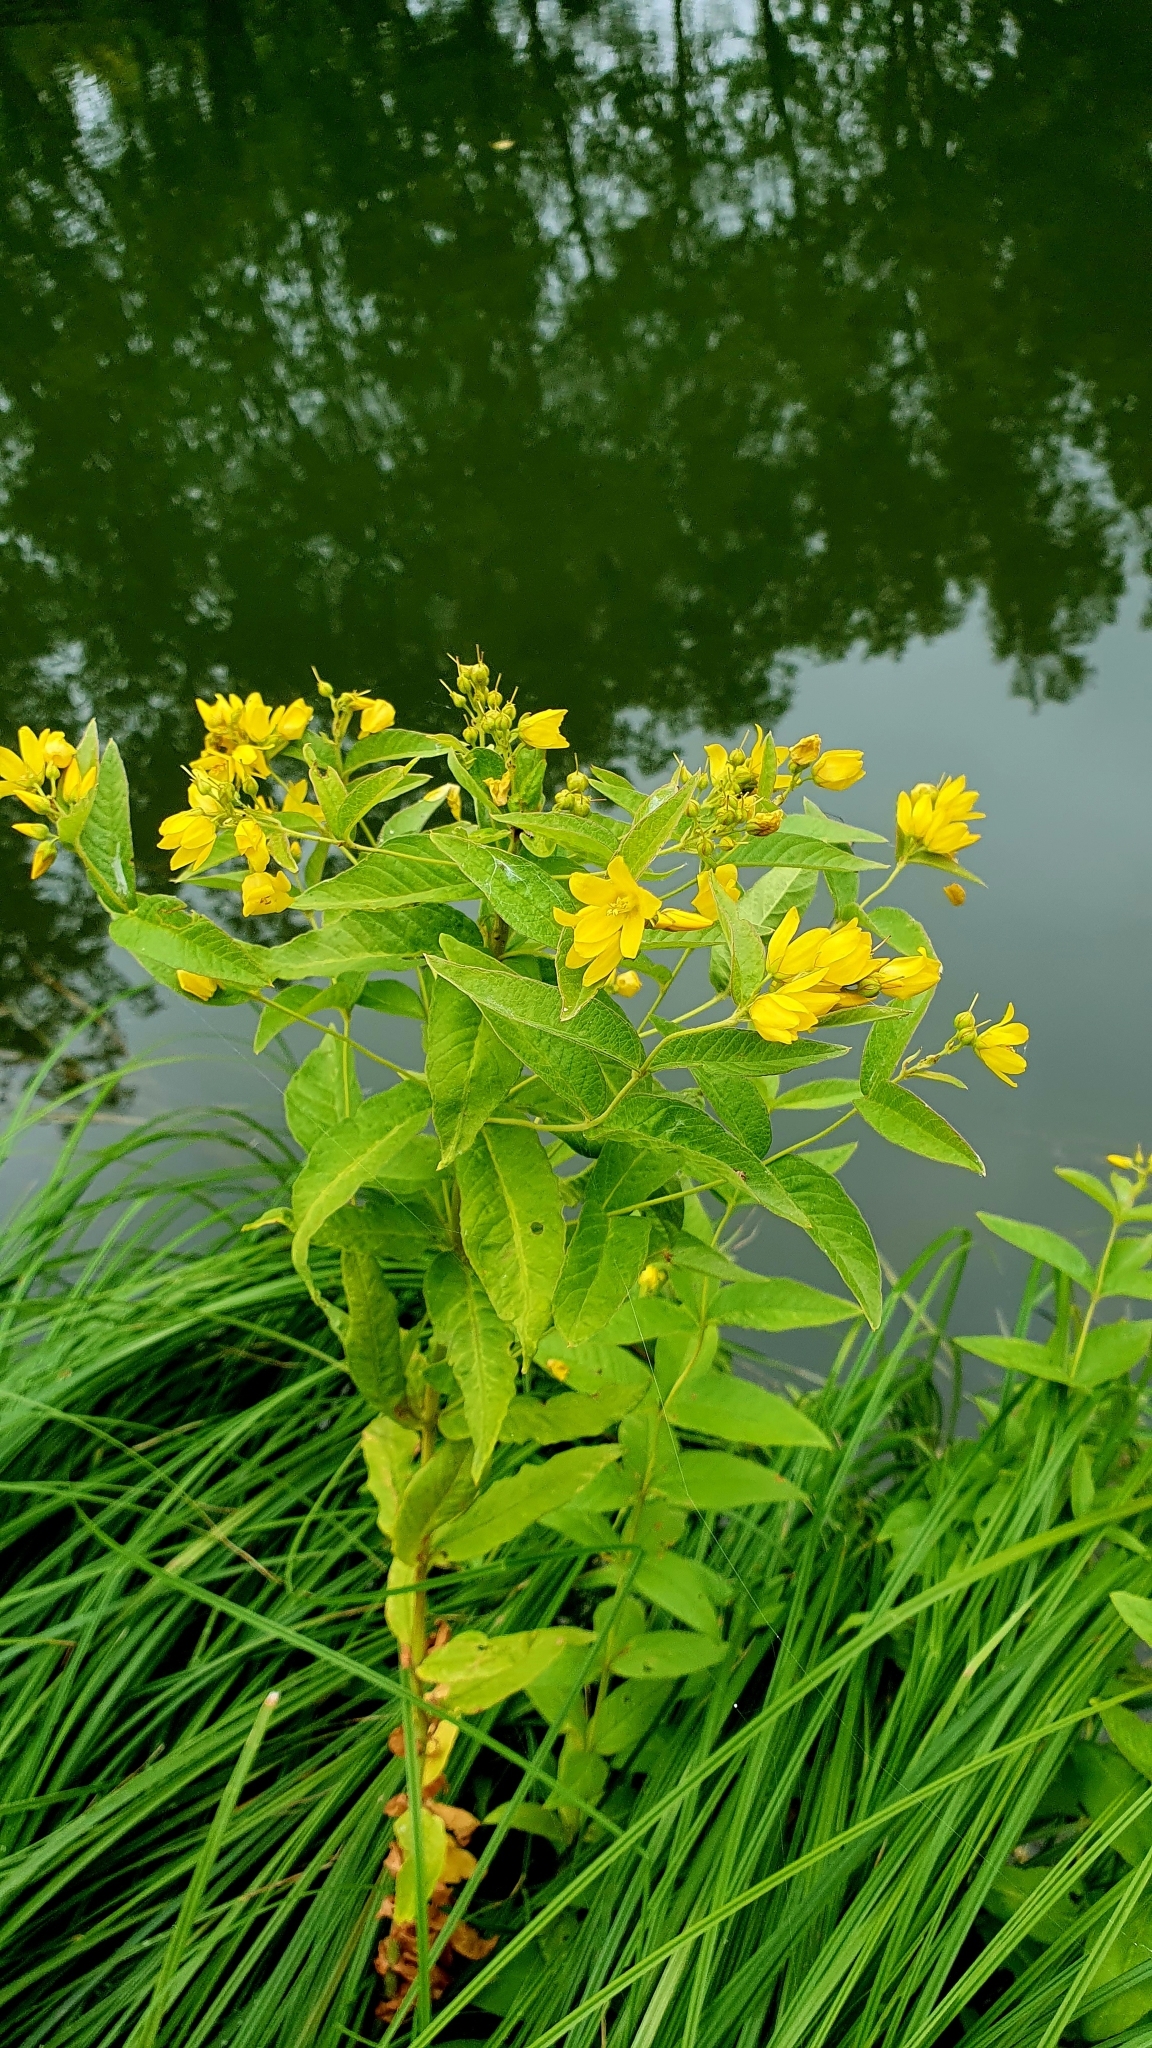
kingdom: Plantae
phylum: Tracheophyta
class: Magnoliopsida
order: Ericales
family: Primulaceae
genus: Lysimachia
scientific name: Lysimachia vulgaris
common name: Yellow loosestrife
